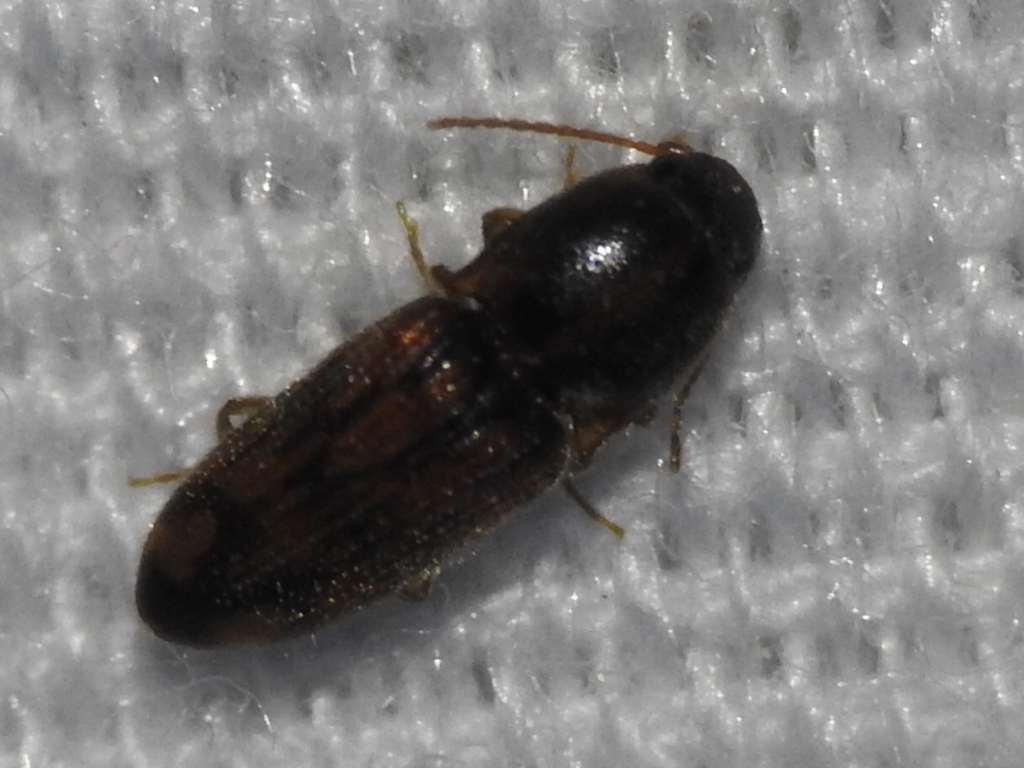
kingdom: Animalia
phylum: Arthropoda
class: Insecta
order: Coleoptera
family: Elateridae
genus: Monocrepidius
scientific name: Monocrepidius bellus
